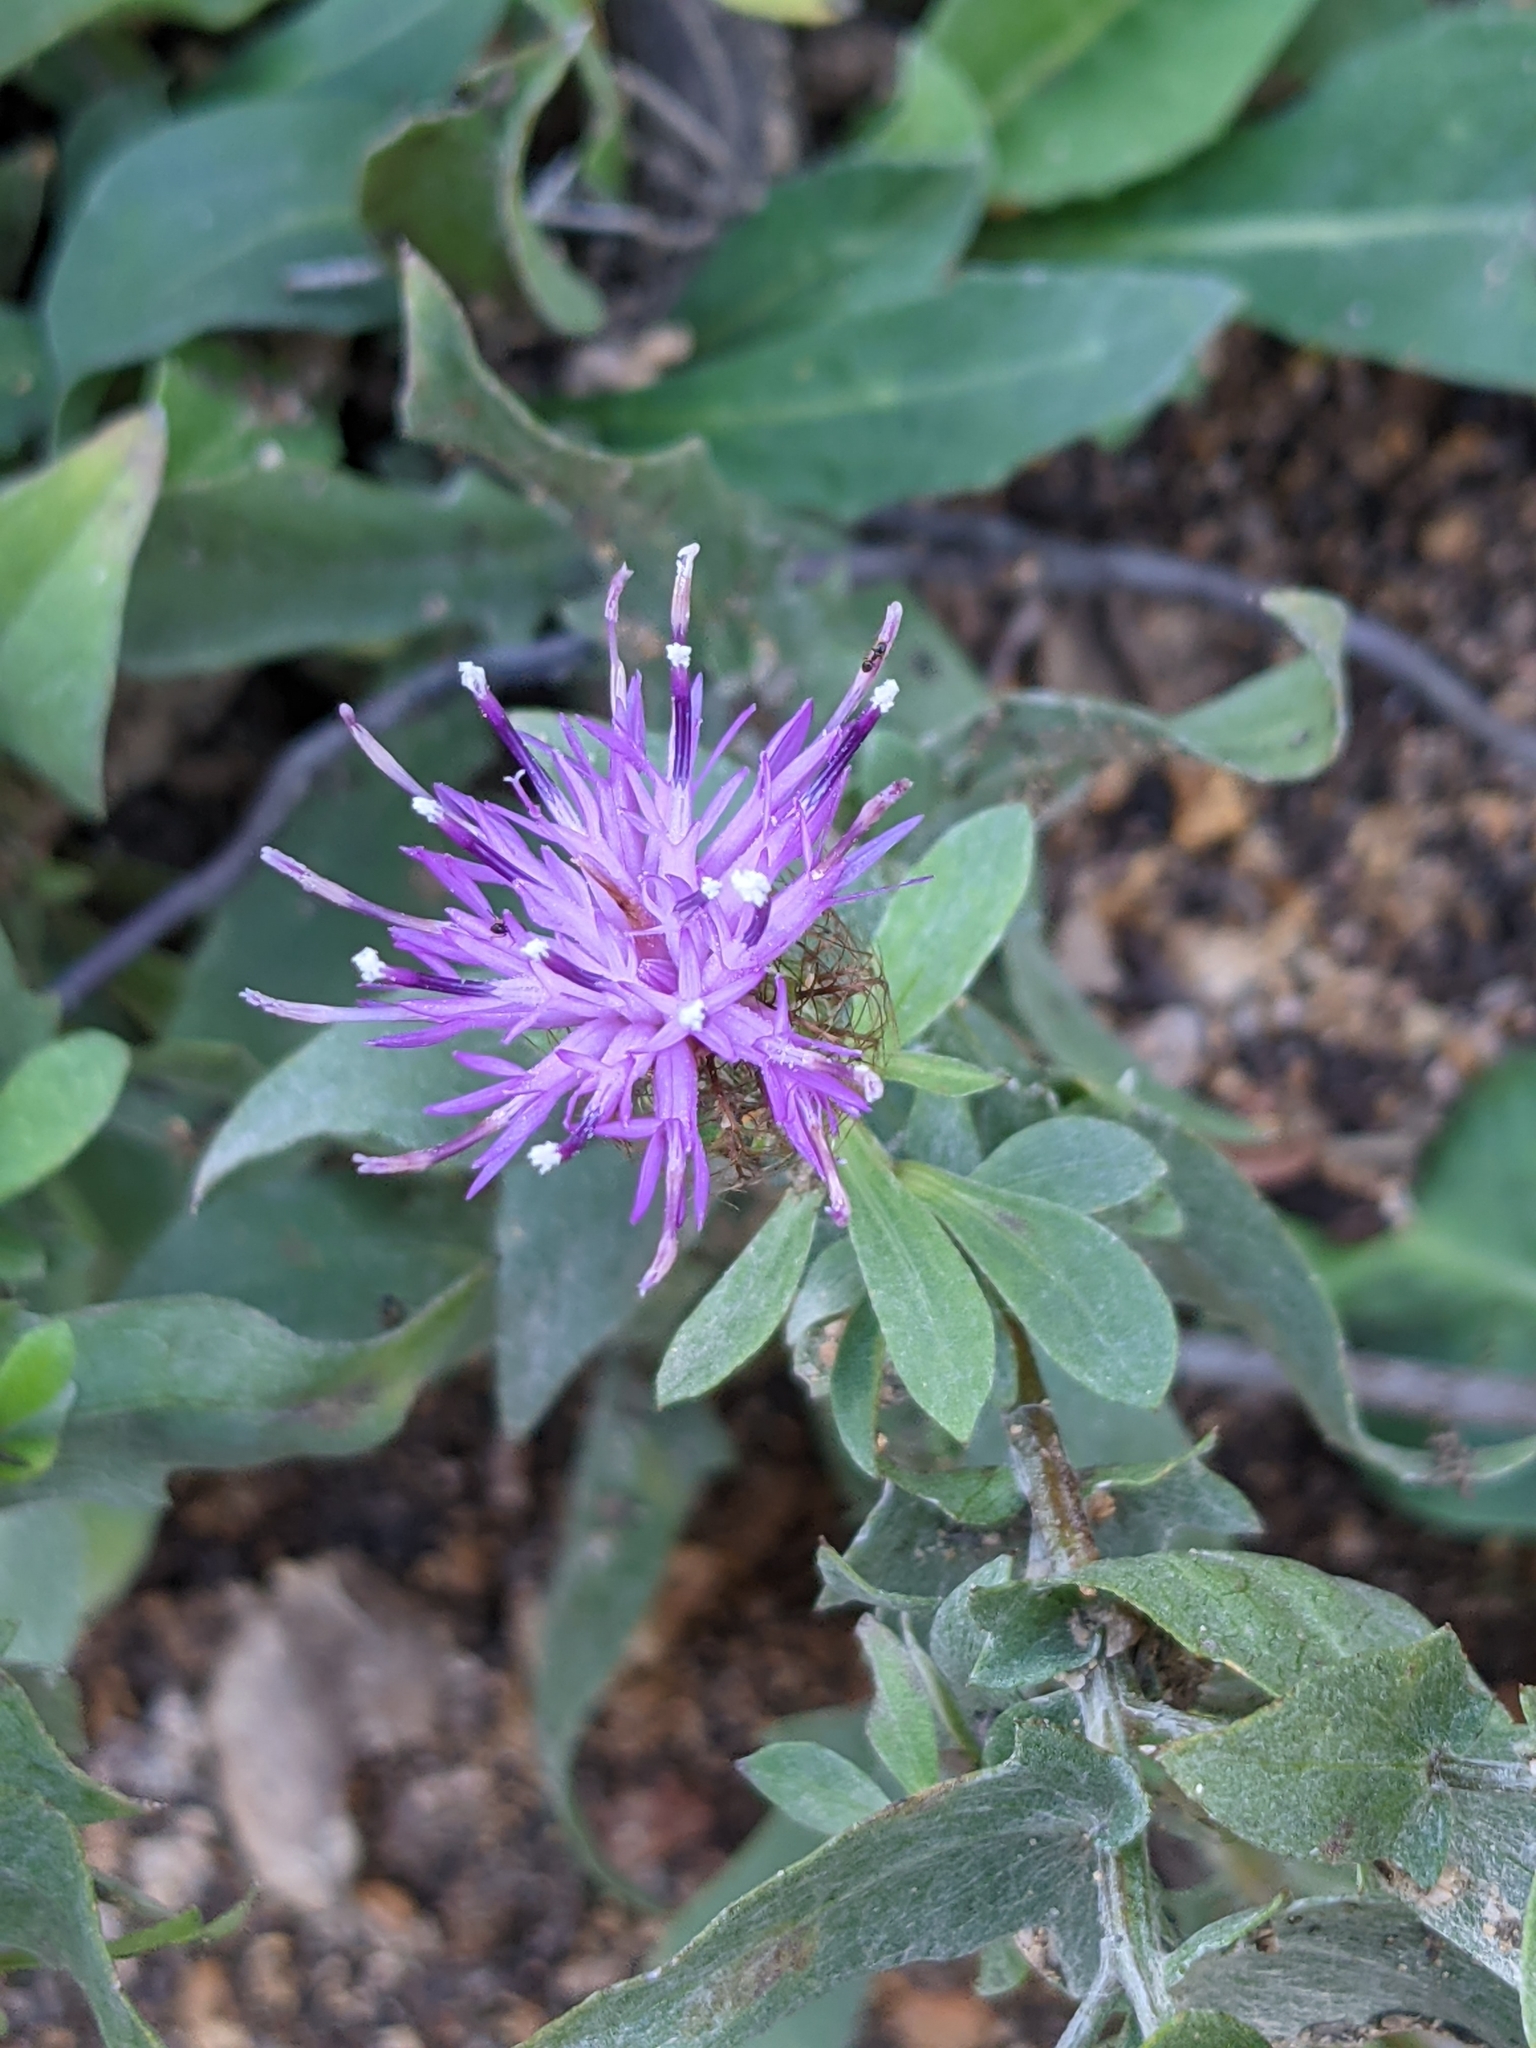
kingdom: Plantae
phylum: Tracheophyta
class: Magnoliopsida
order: Asterales
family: Asteraceae
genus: Centaurea
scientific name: Centaurea pectinata
